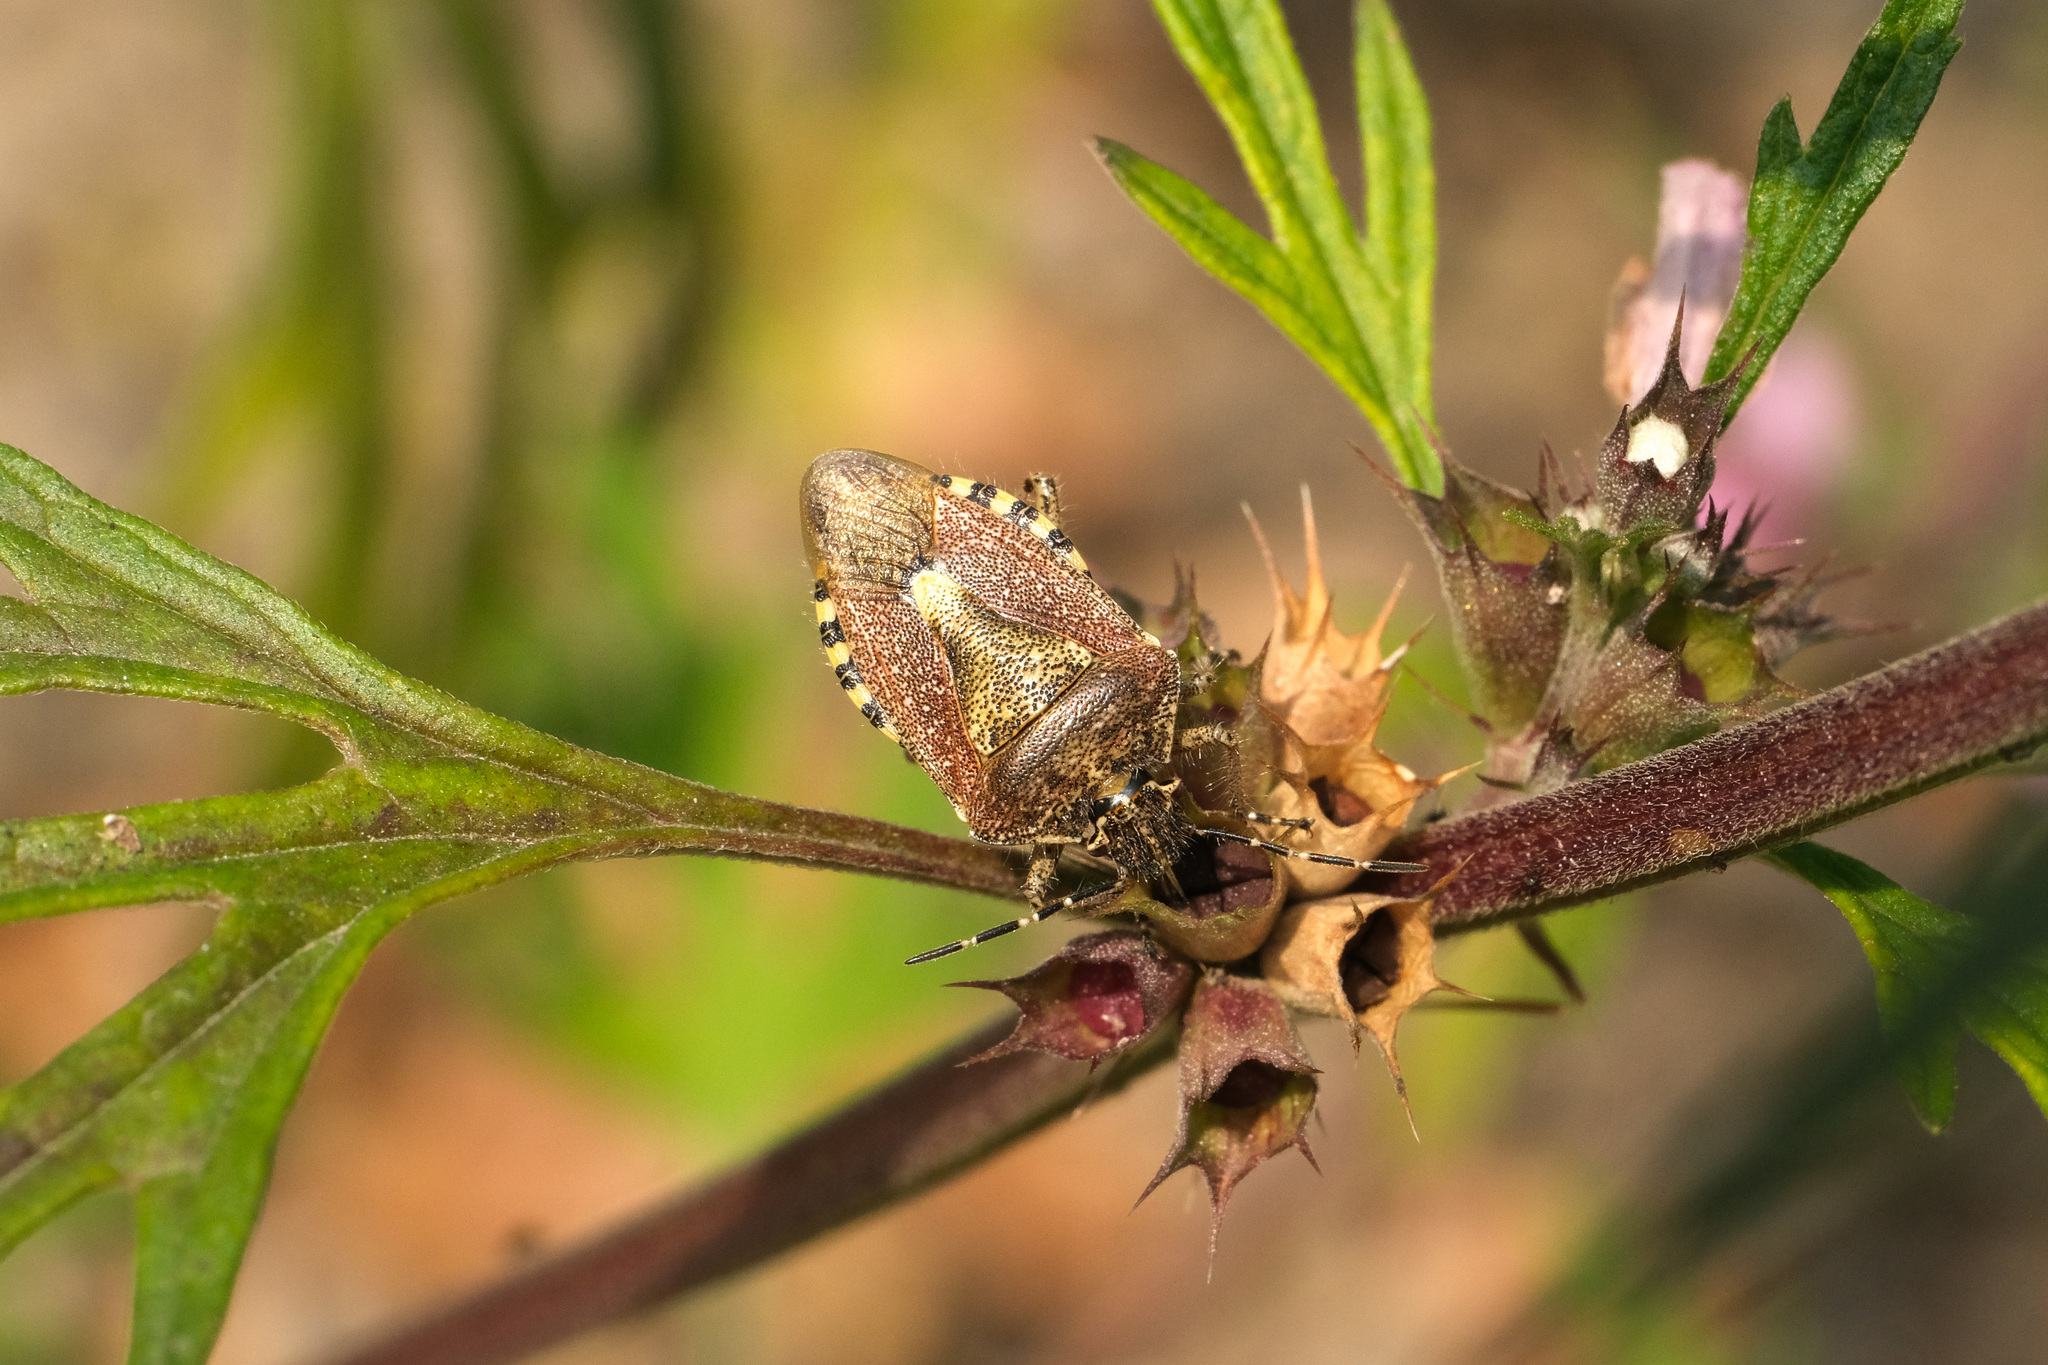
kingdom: Animalia
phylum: Arthropoda
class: Insecta
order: Hemiptera
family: Pentatomidae
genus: Dolycoris
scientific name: Dolycoris baccarum
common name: Sloe bug
